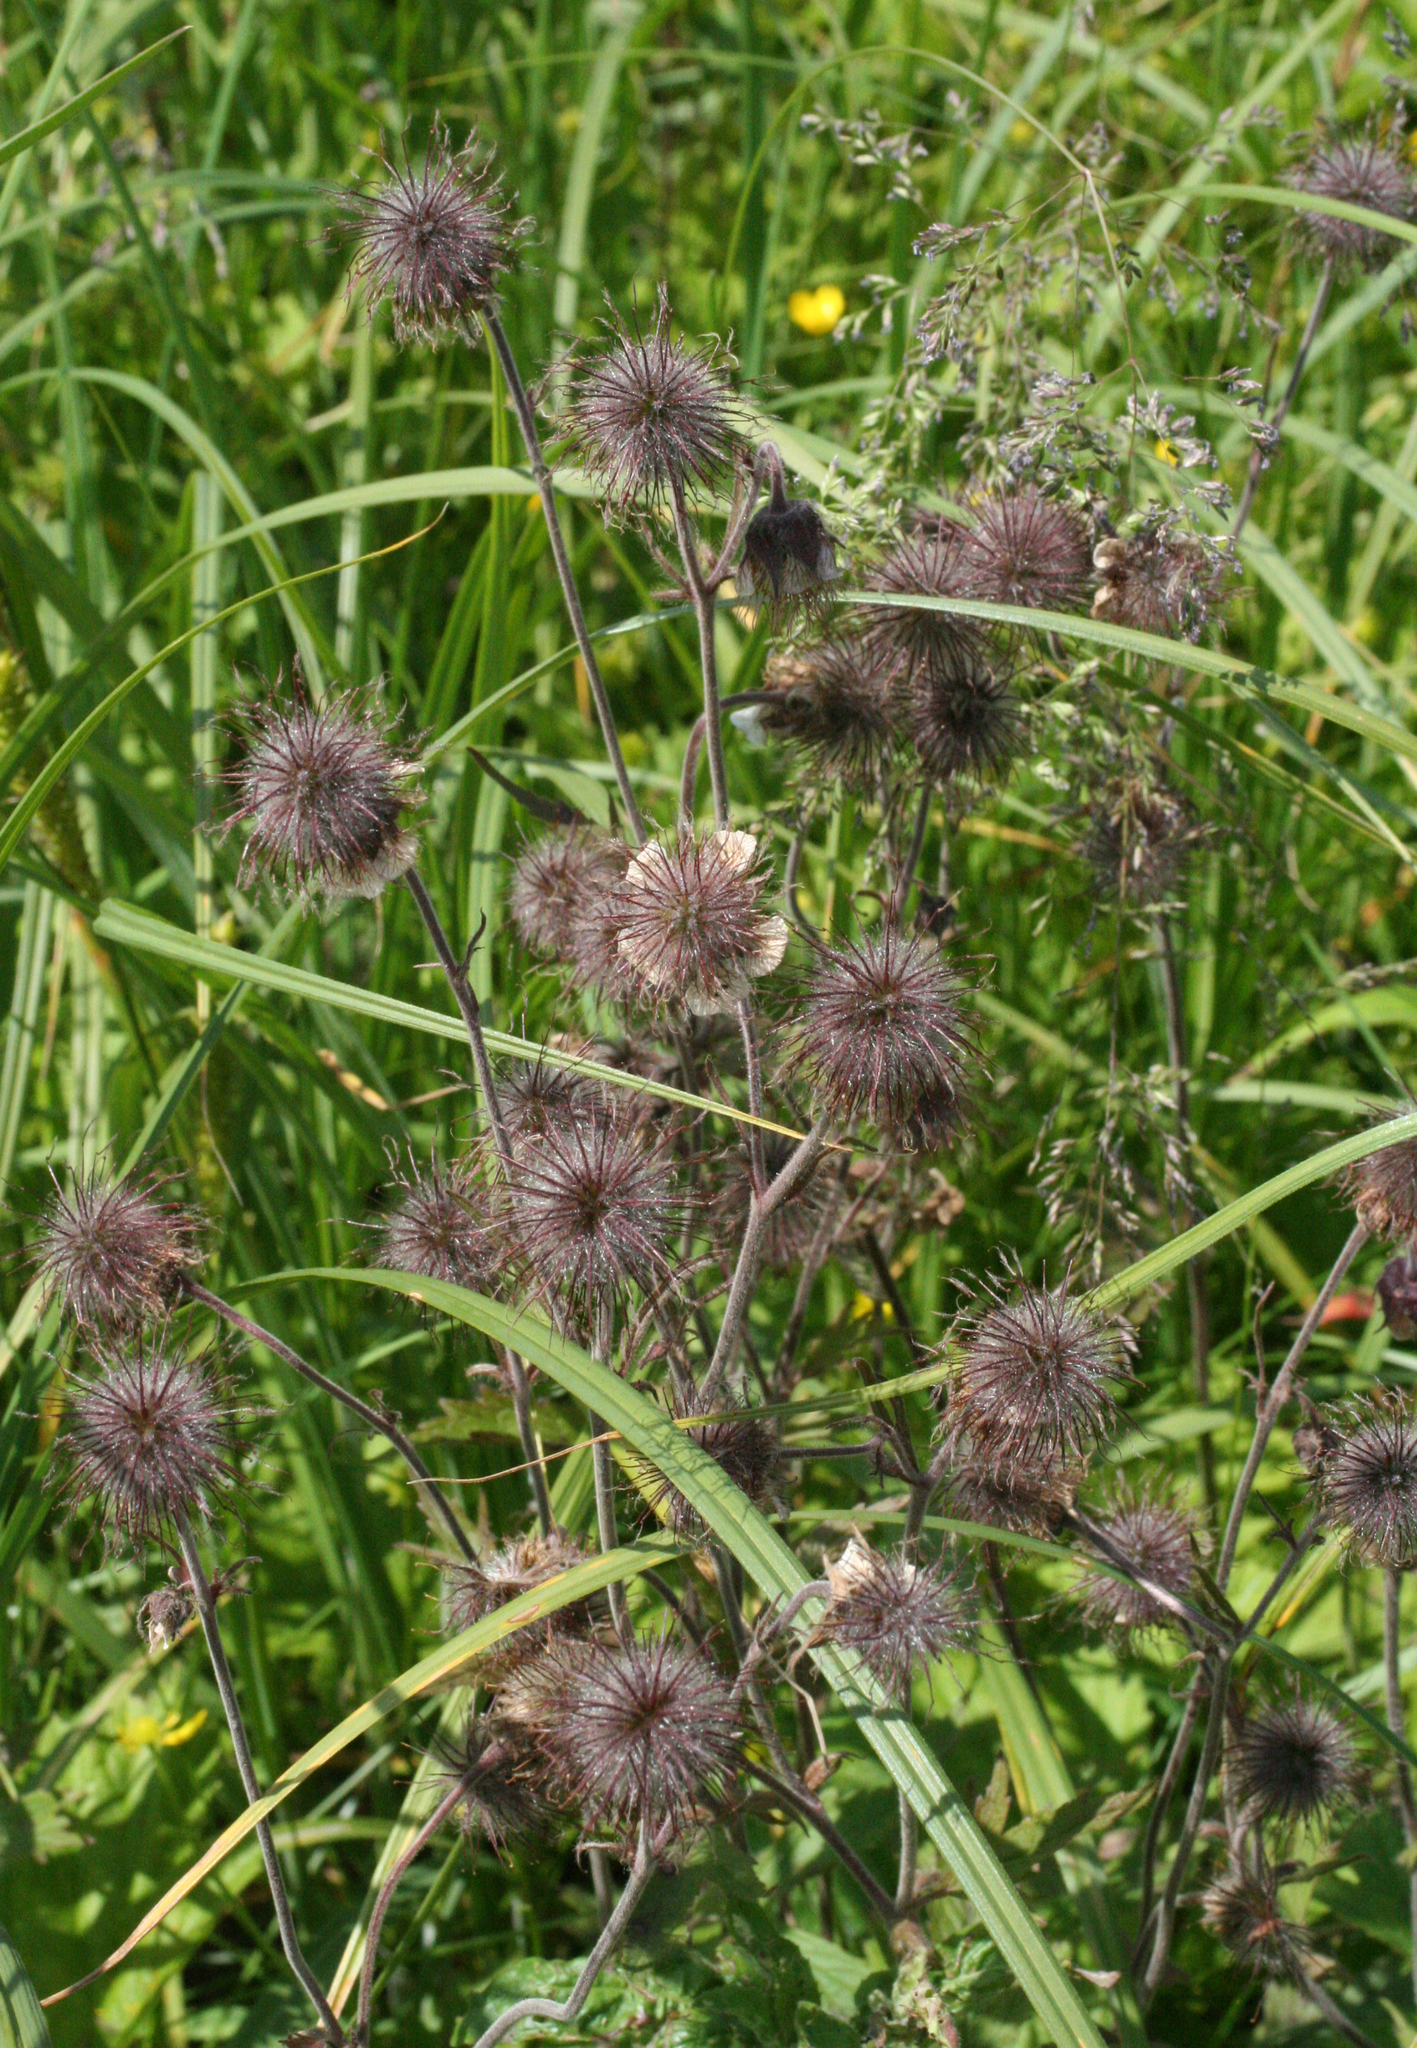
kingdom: Plantae
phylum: Tracheophyta
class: Magnoliopsida
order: Rosales
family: Rosaceae
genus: Geum
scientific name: Geum rivale
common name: Water avens
